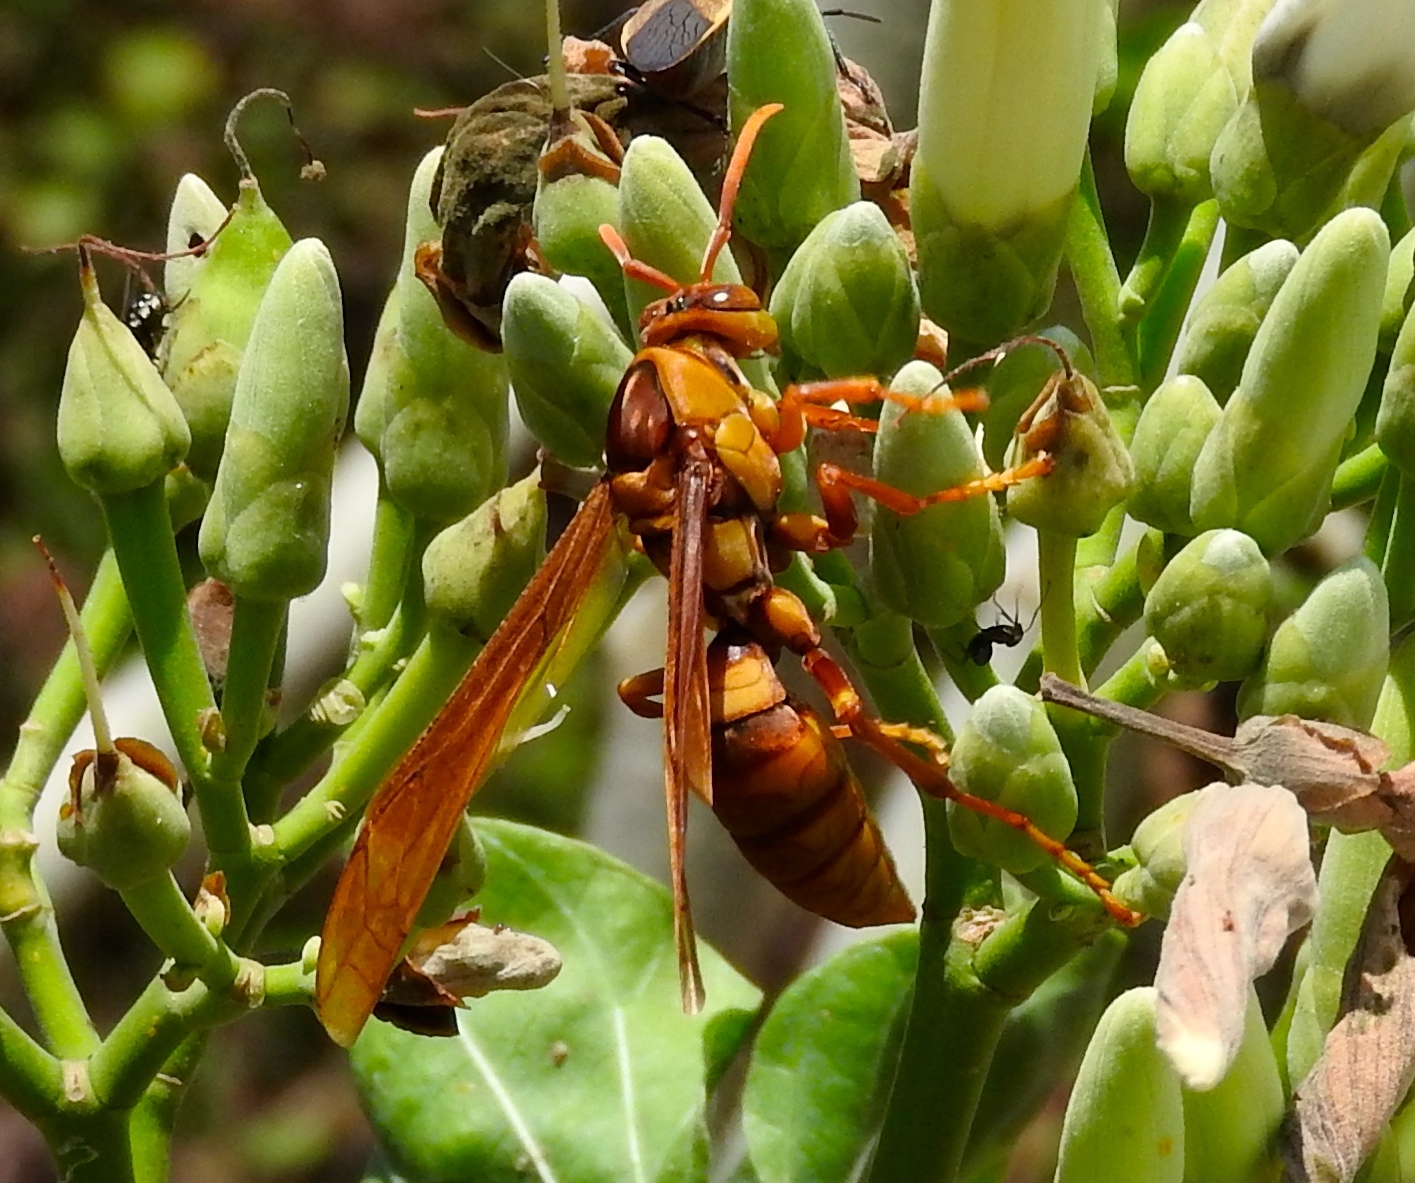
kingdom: Animalia
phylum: Arthropoda
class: Insecta
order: Hymenoptera
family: Eumenidae
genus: Polistes
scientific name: Polistes carnifex
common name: Paper wasp
